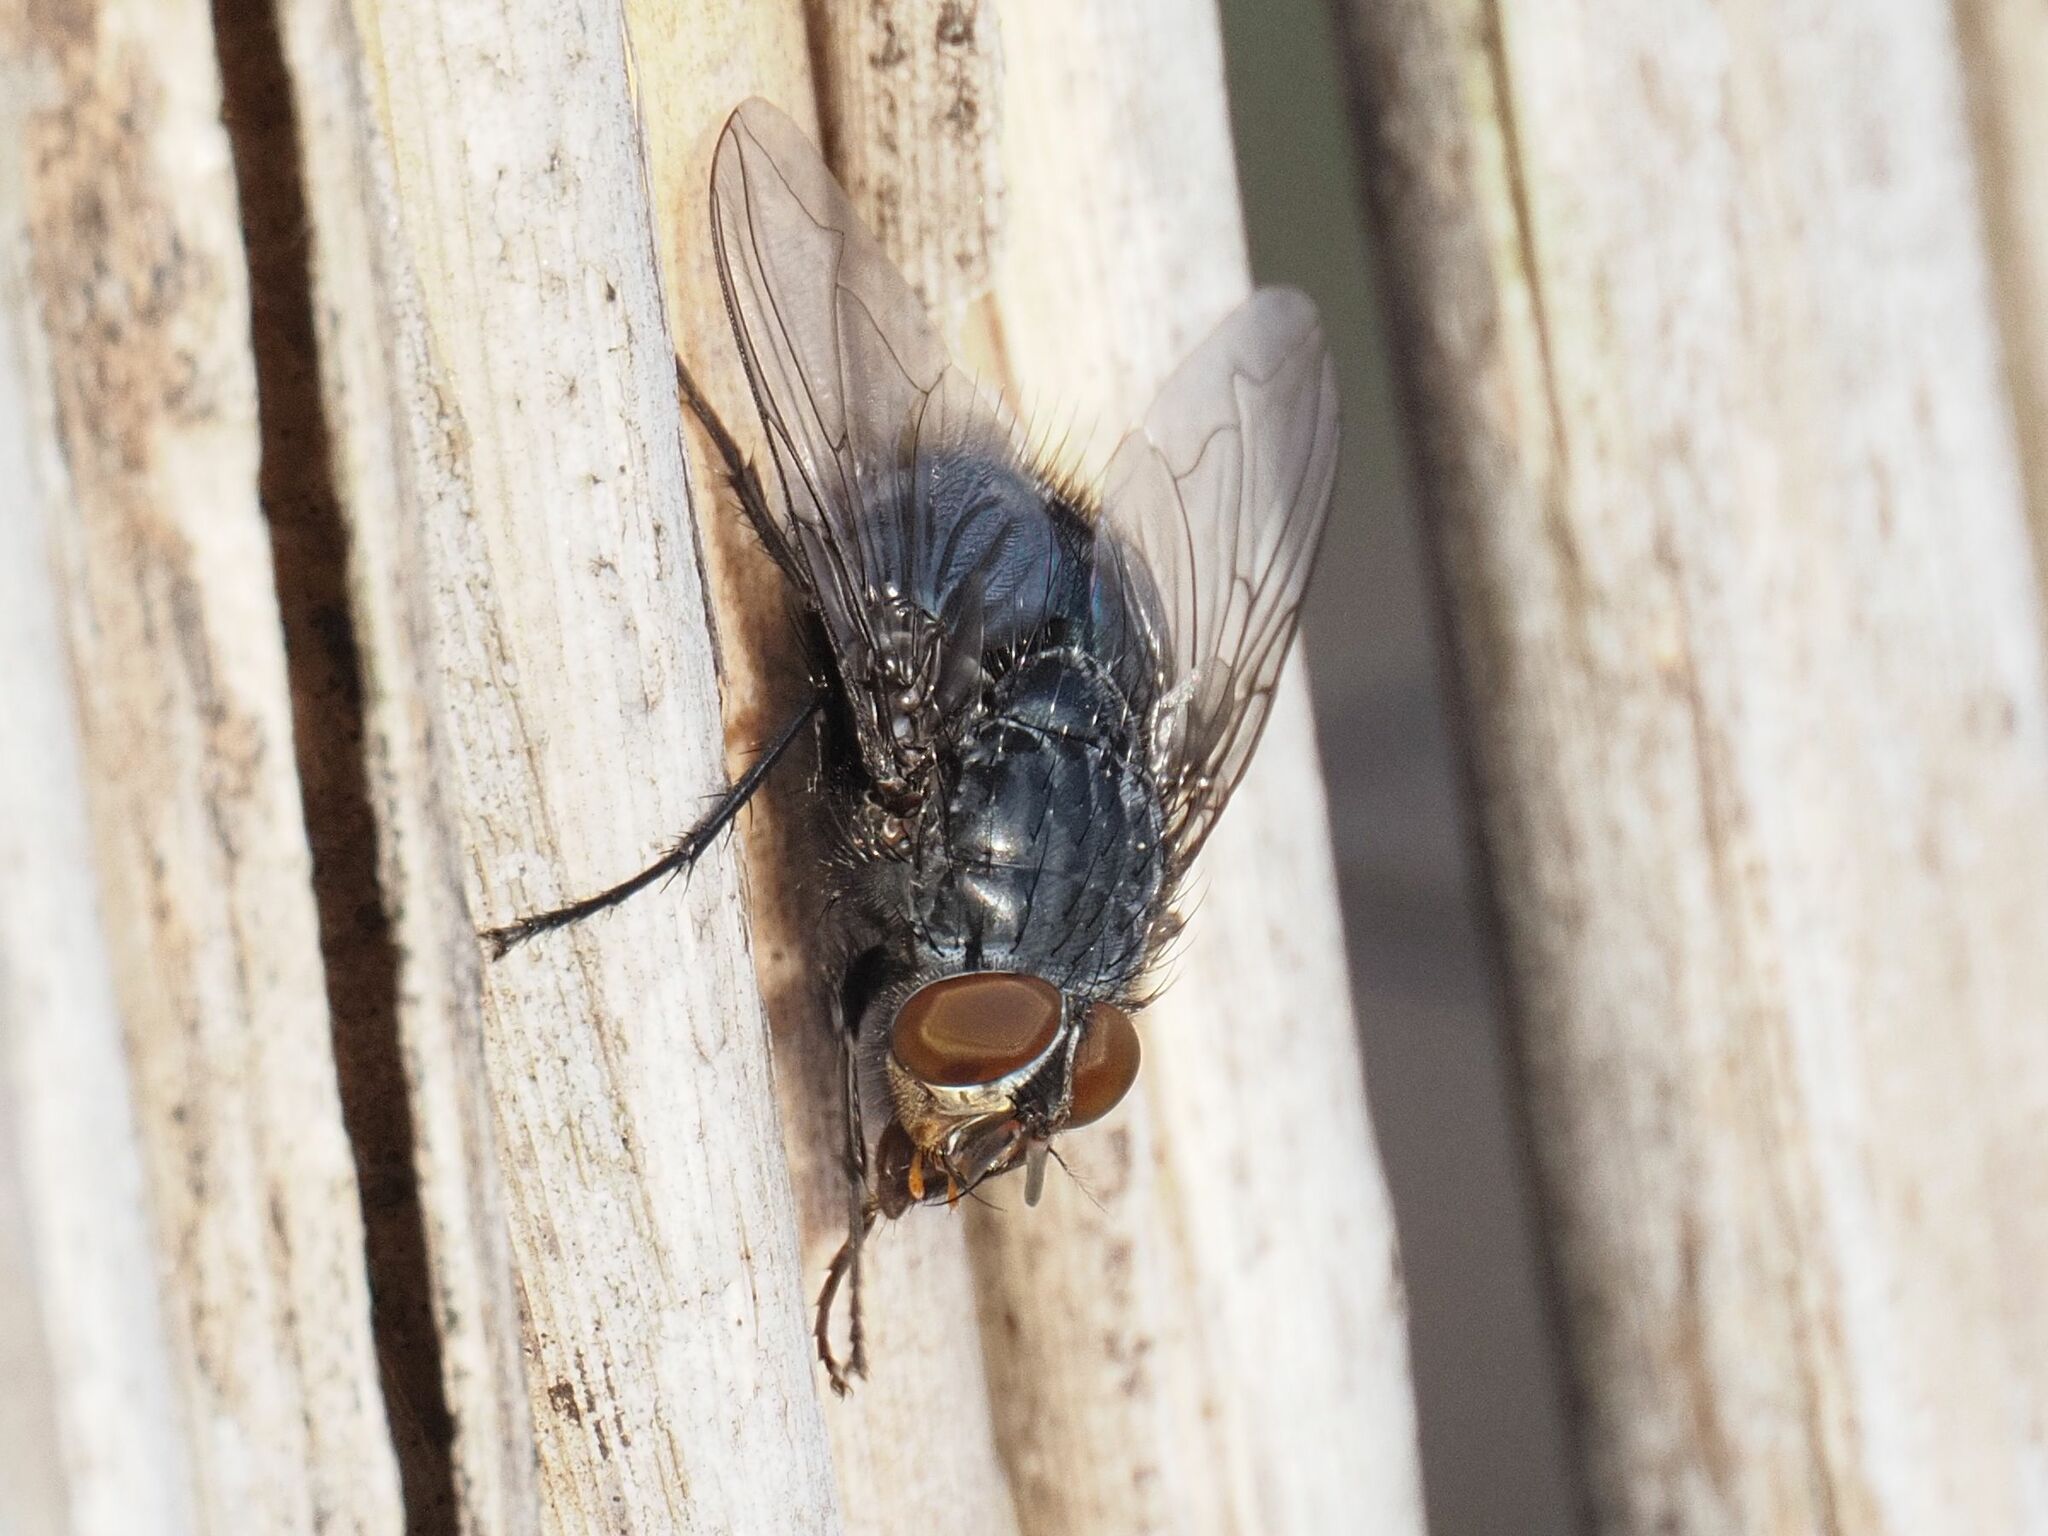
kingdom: Animalia
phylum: Arthropoda
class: Insecta
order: Diptera
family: Calliphoridae
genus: Calliphora
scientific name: Calliphora vicina
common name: Common blow flie
